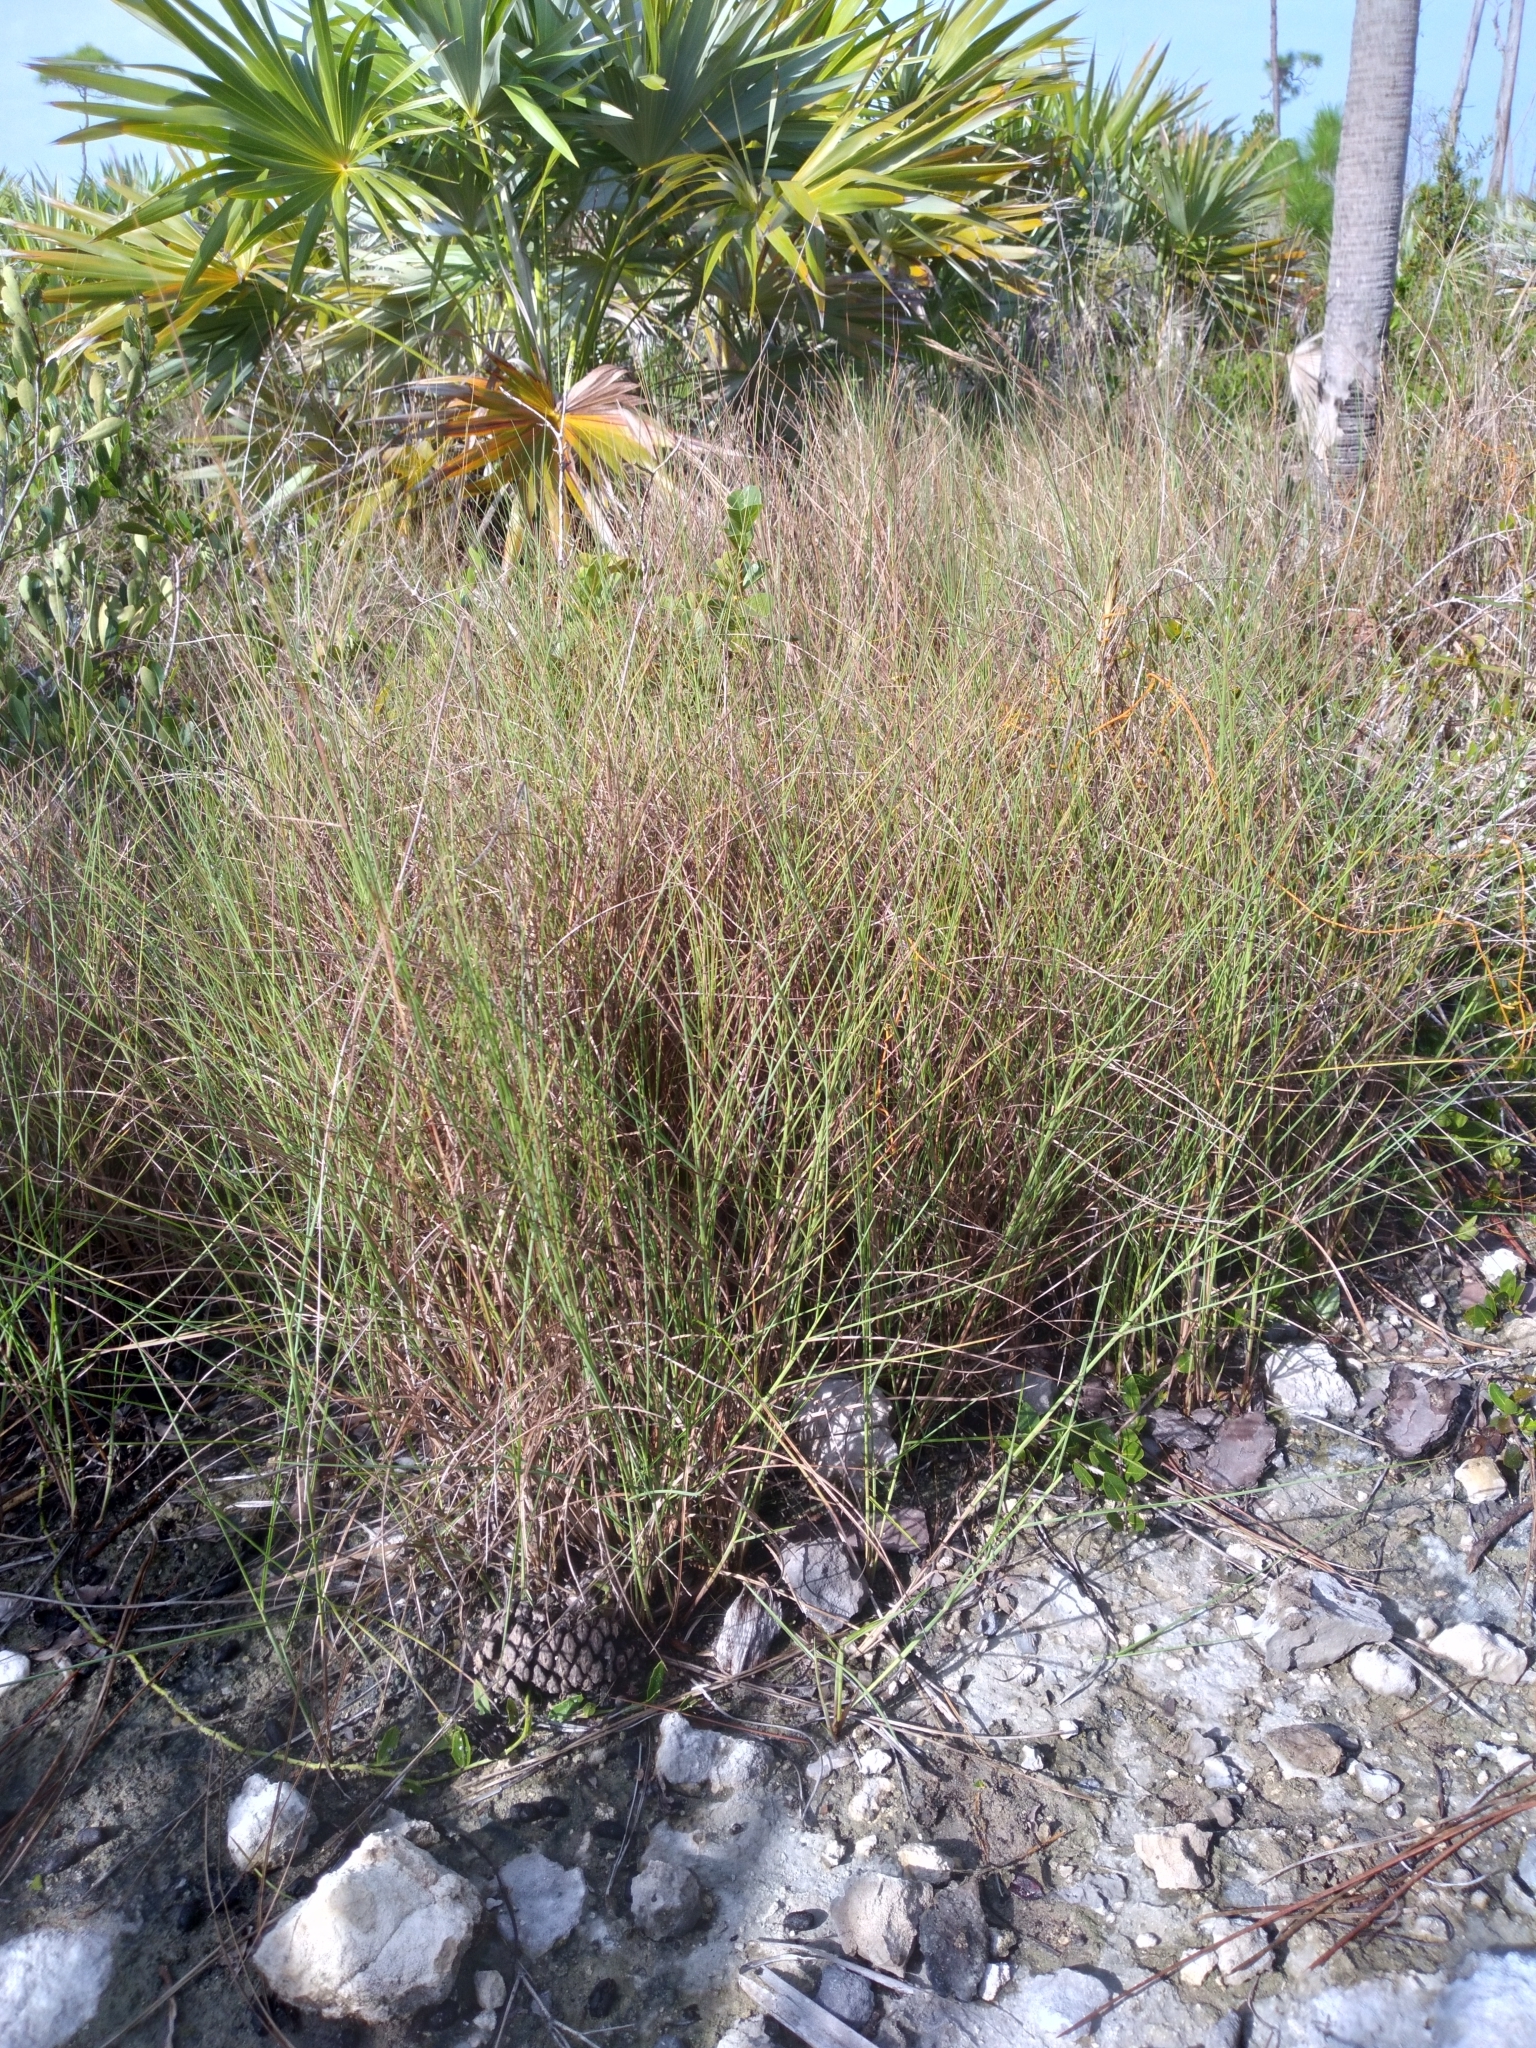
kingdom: Plantae
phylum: Tracheophyta
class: Liliopsida
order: Poales
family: Poaceae
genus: Schizachyrium
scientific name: Schizachyrium rhizomatum
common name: Florida little bluestem
